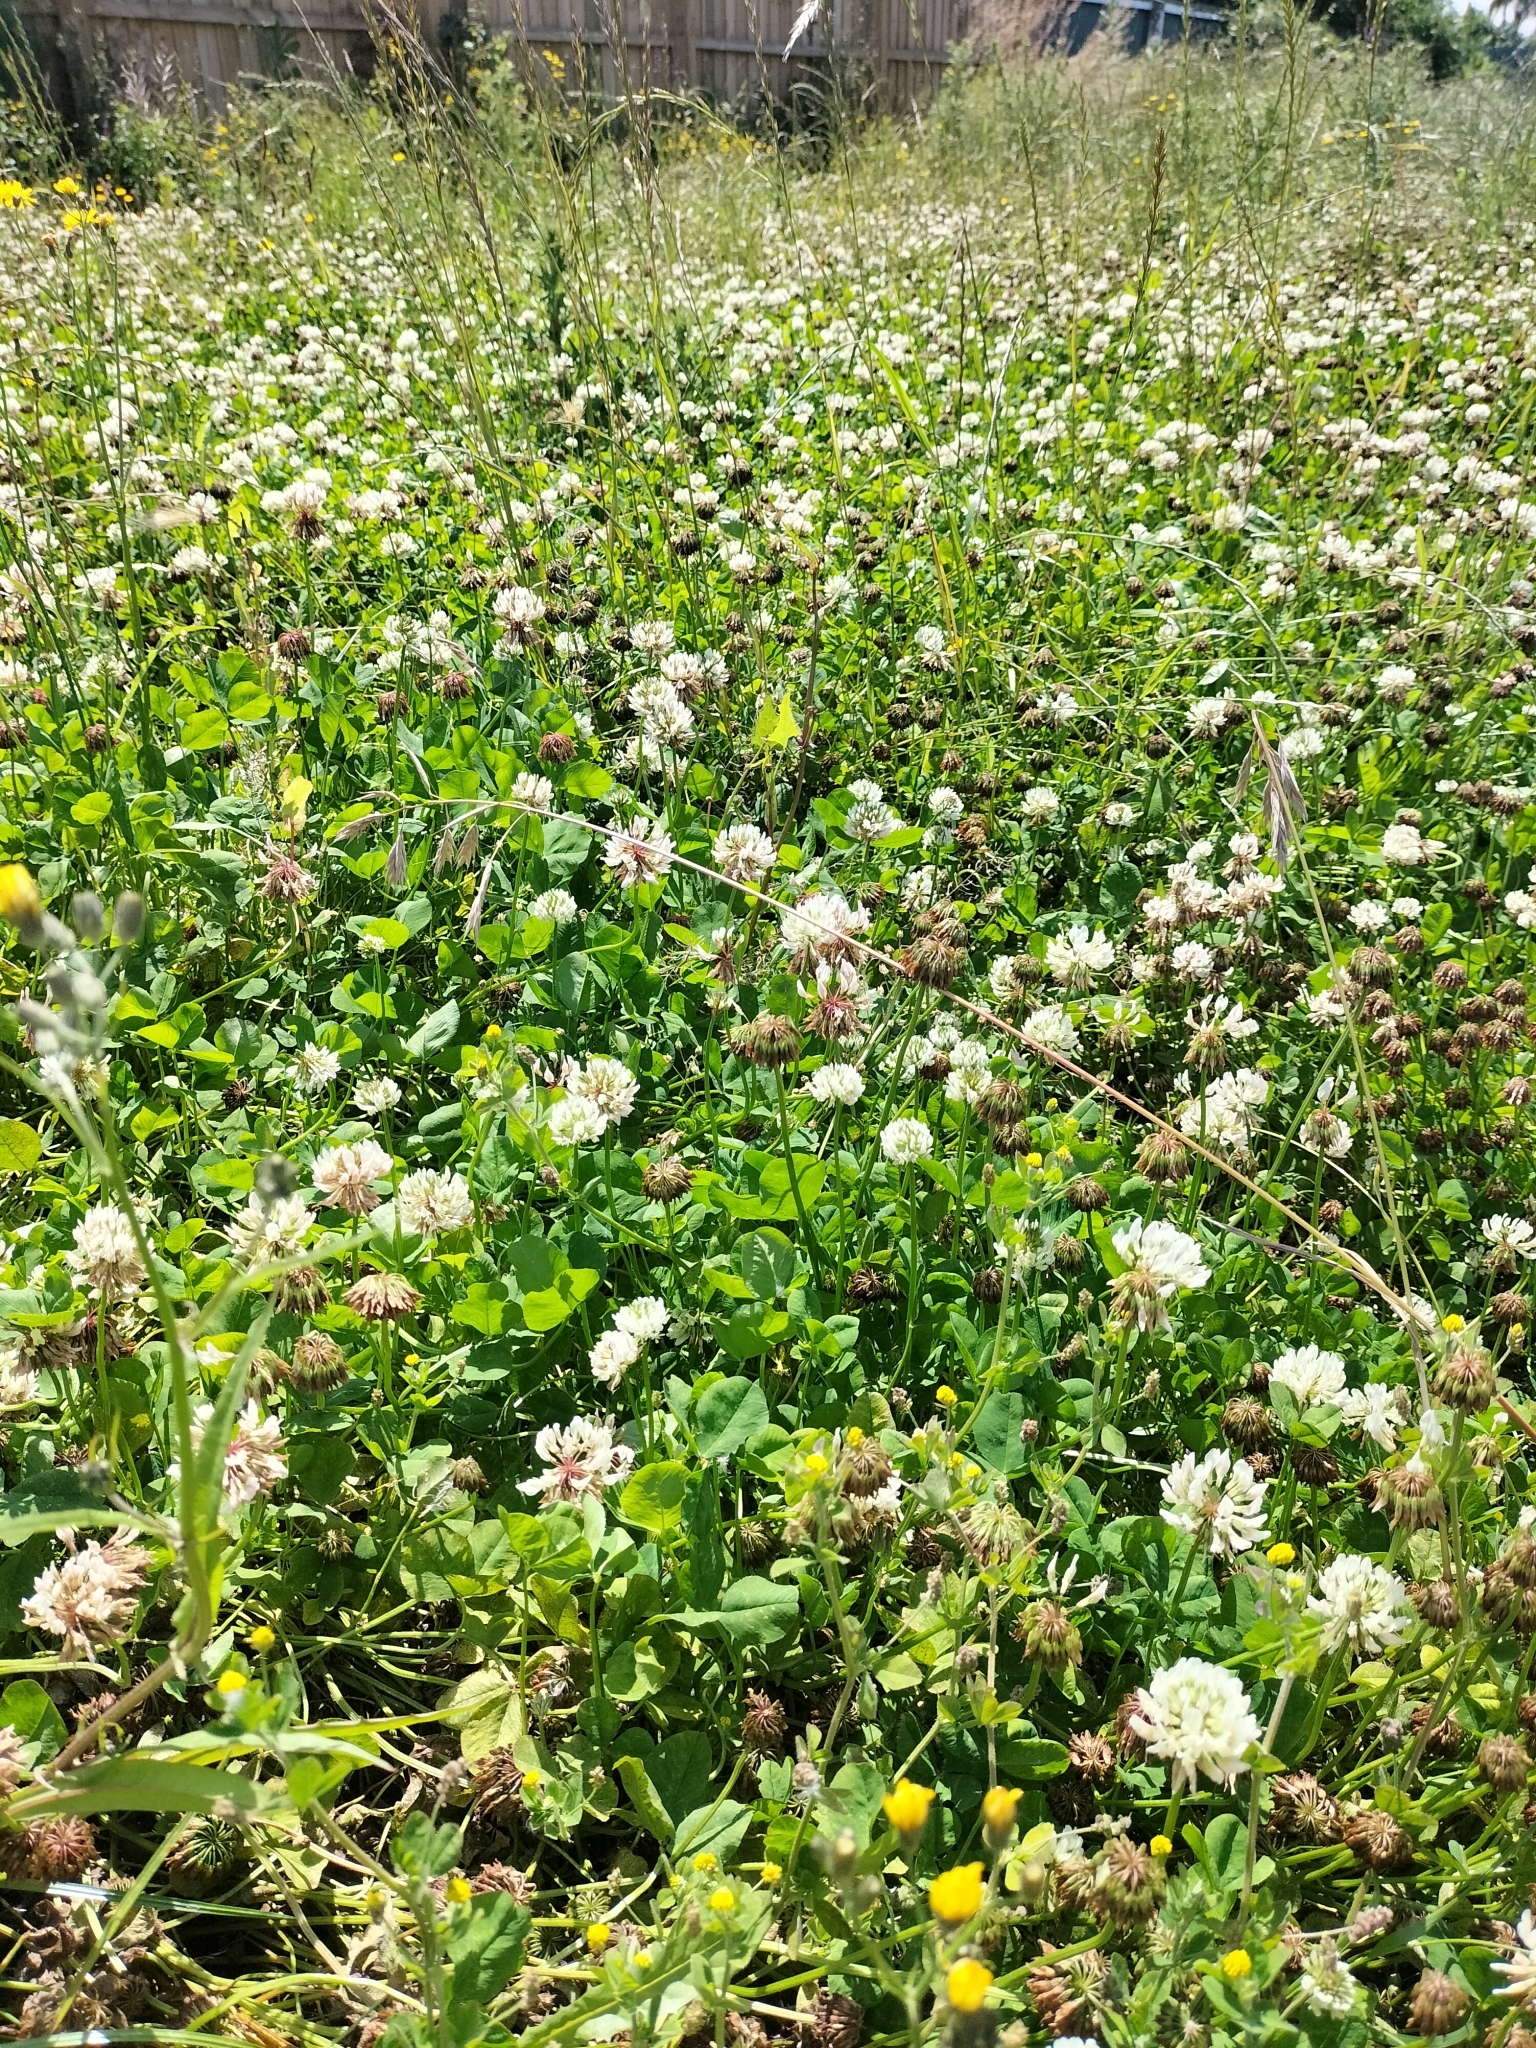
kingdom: Plantae
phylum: Tracheophyta
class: Magnoliopsida
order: Fabales
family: Fabaceae
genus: Trifolium
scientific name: Trifolium repens
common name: White clover
